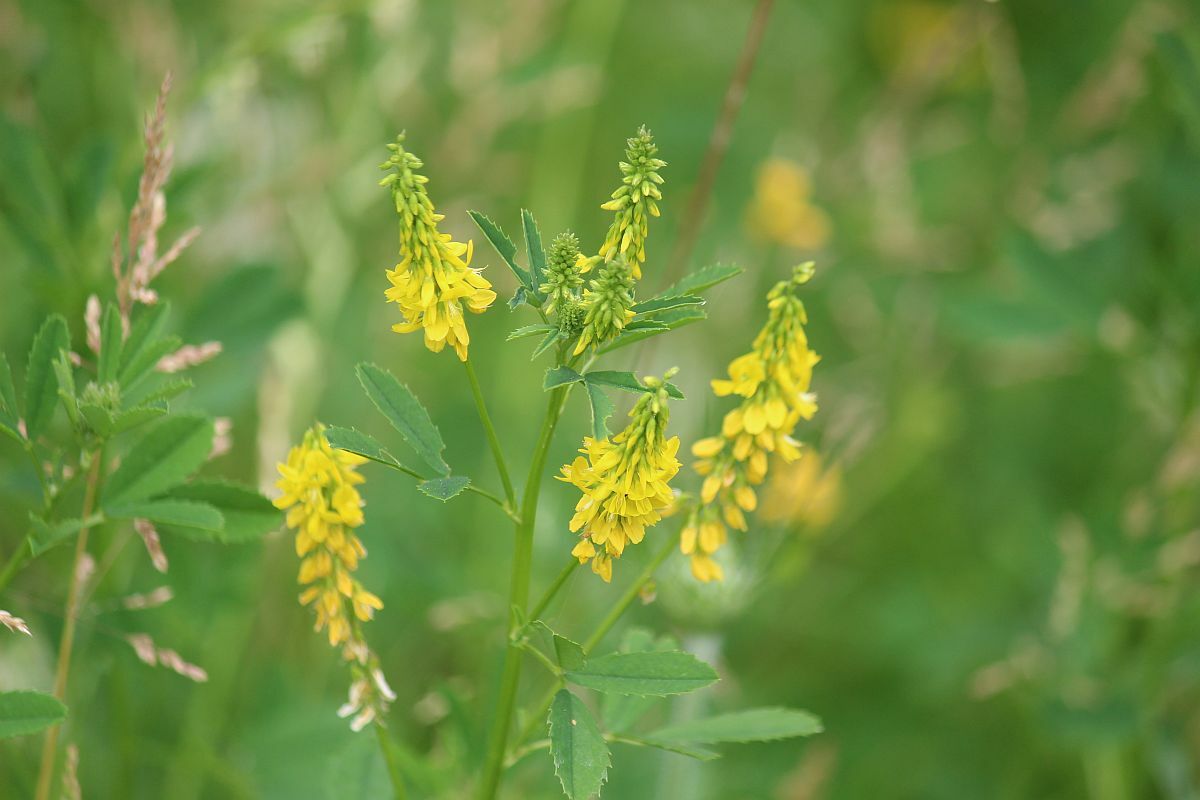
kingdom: Plantae
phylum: Tracheophyta
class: Magnoliopsida
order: Fabales
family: Fabaceae
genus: Melilotus
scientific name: Melilotus officinalis
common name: Sweetclover
